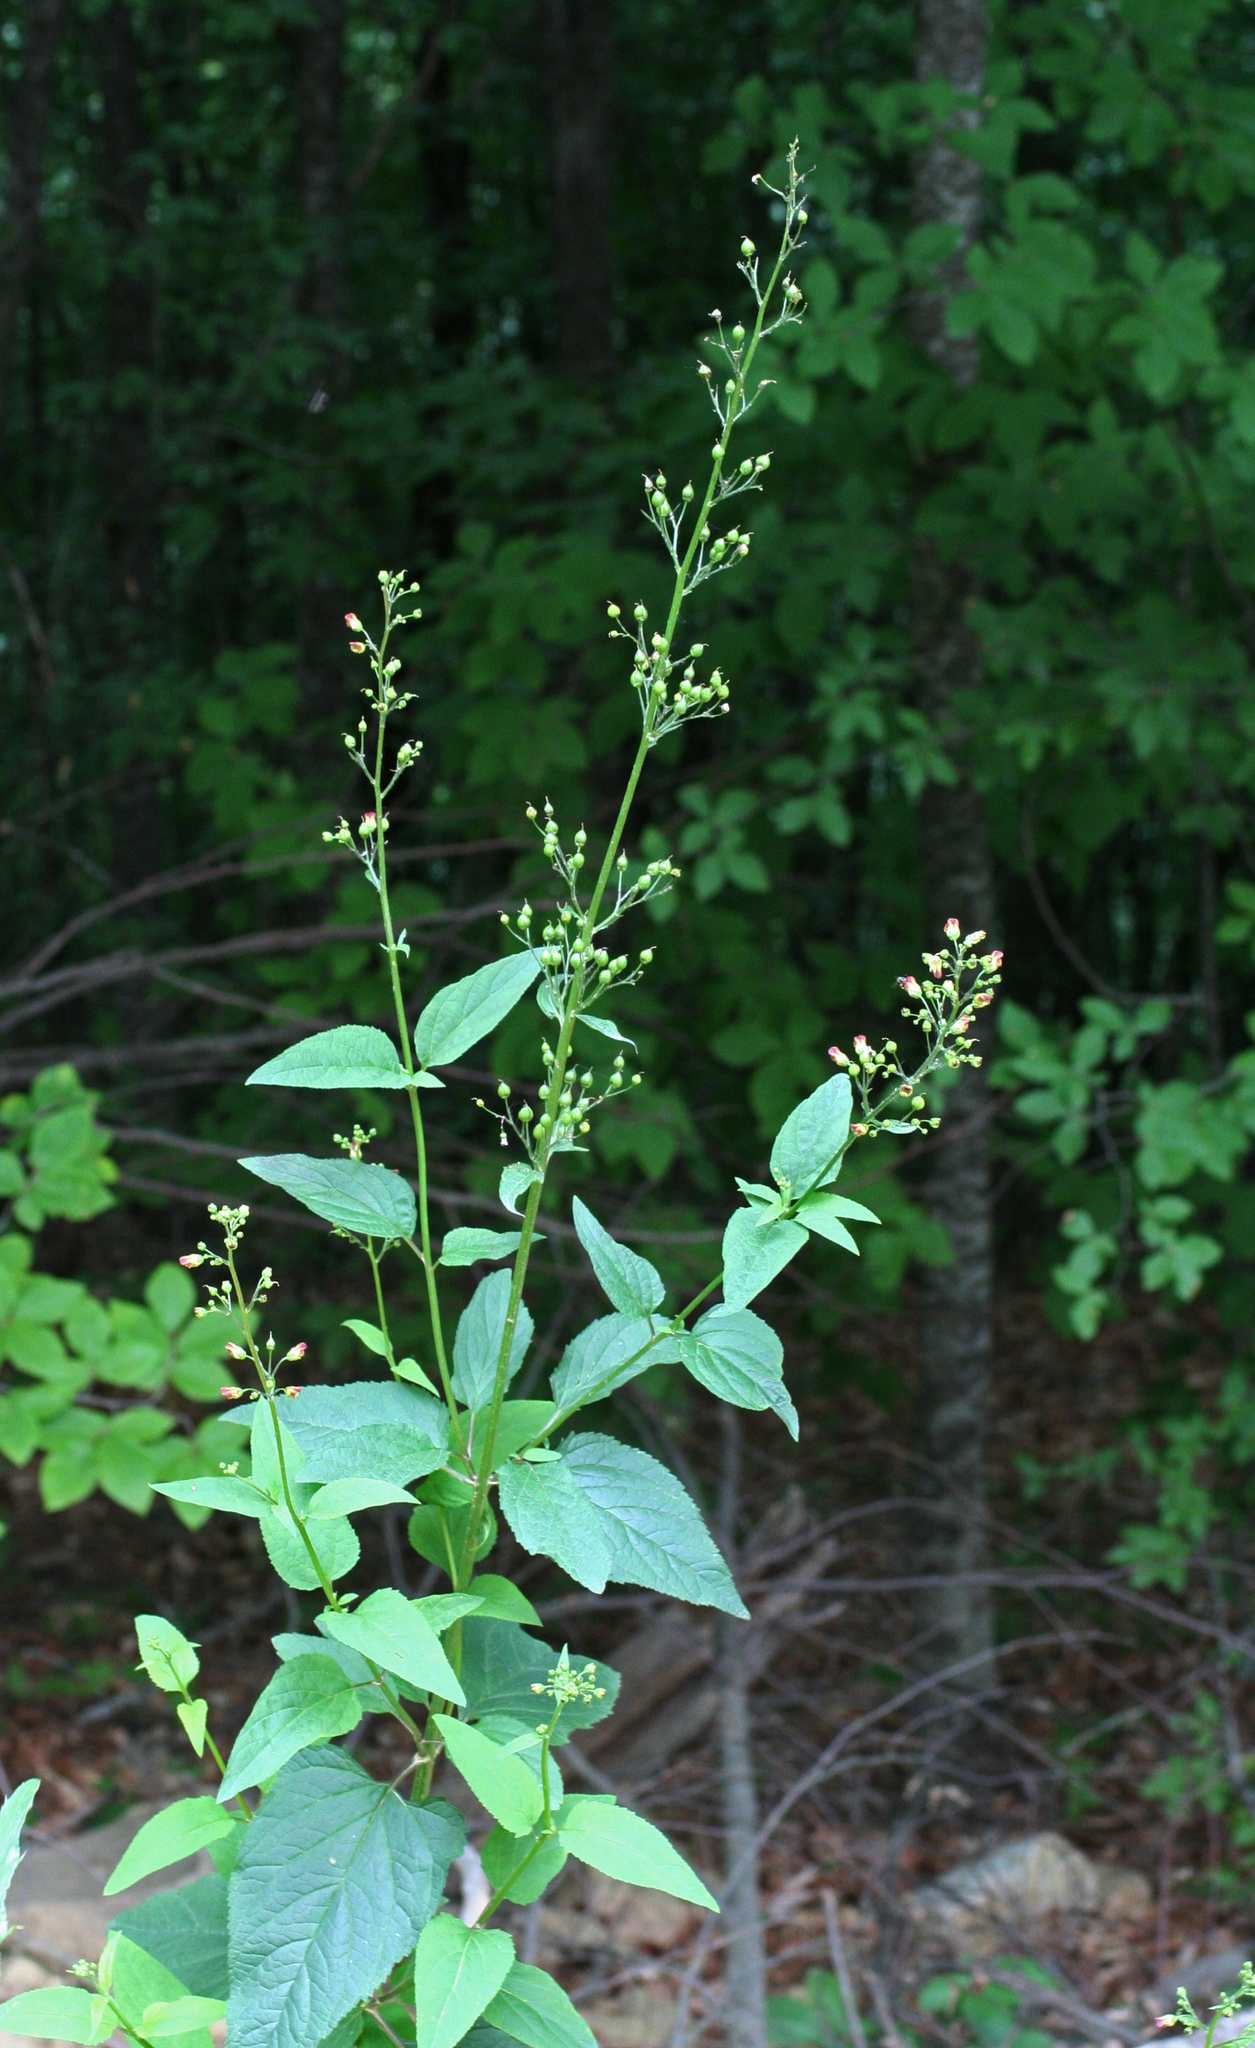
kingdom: Plantae
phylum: Tracheophyta
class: Magnoliopsida
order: Lamiales
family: Scrophulariaceae
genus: Scrophularia
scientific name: Scrophularia nodosa
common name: Common figwort
